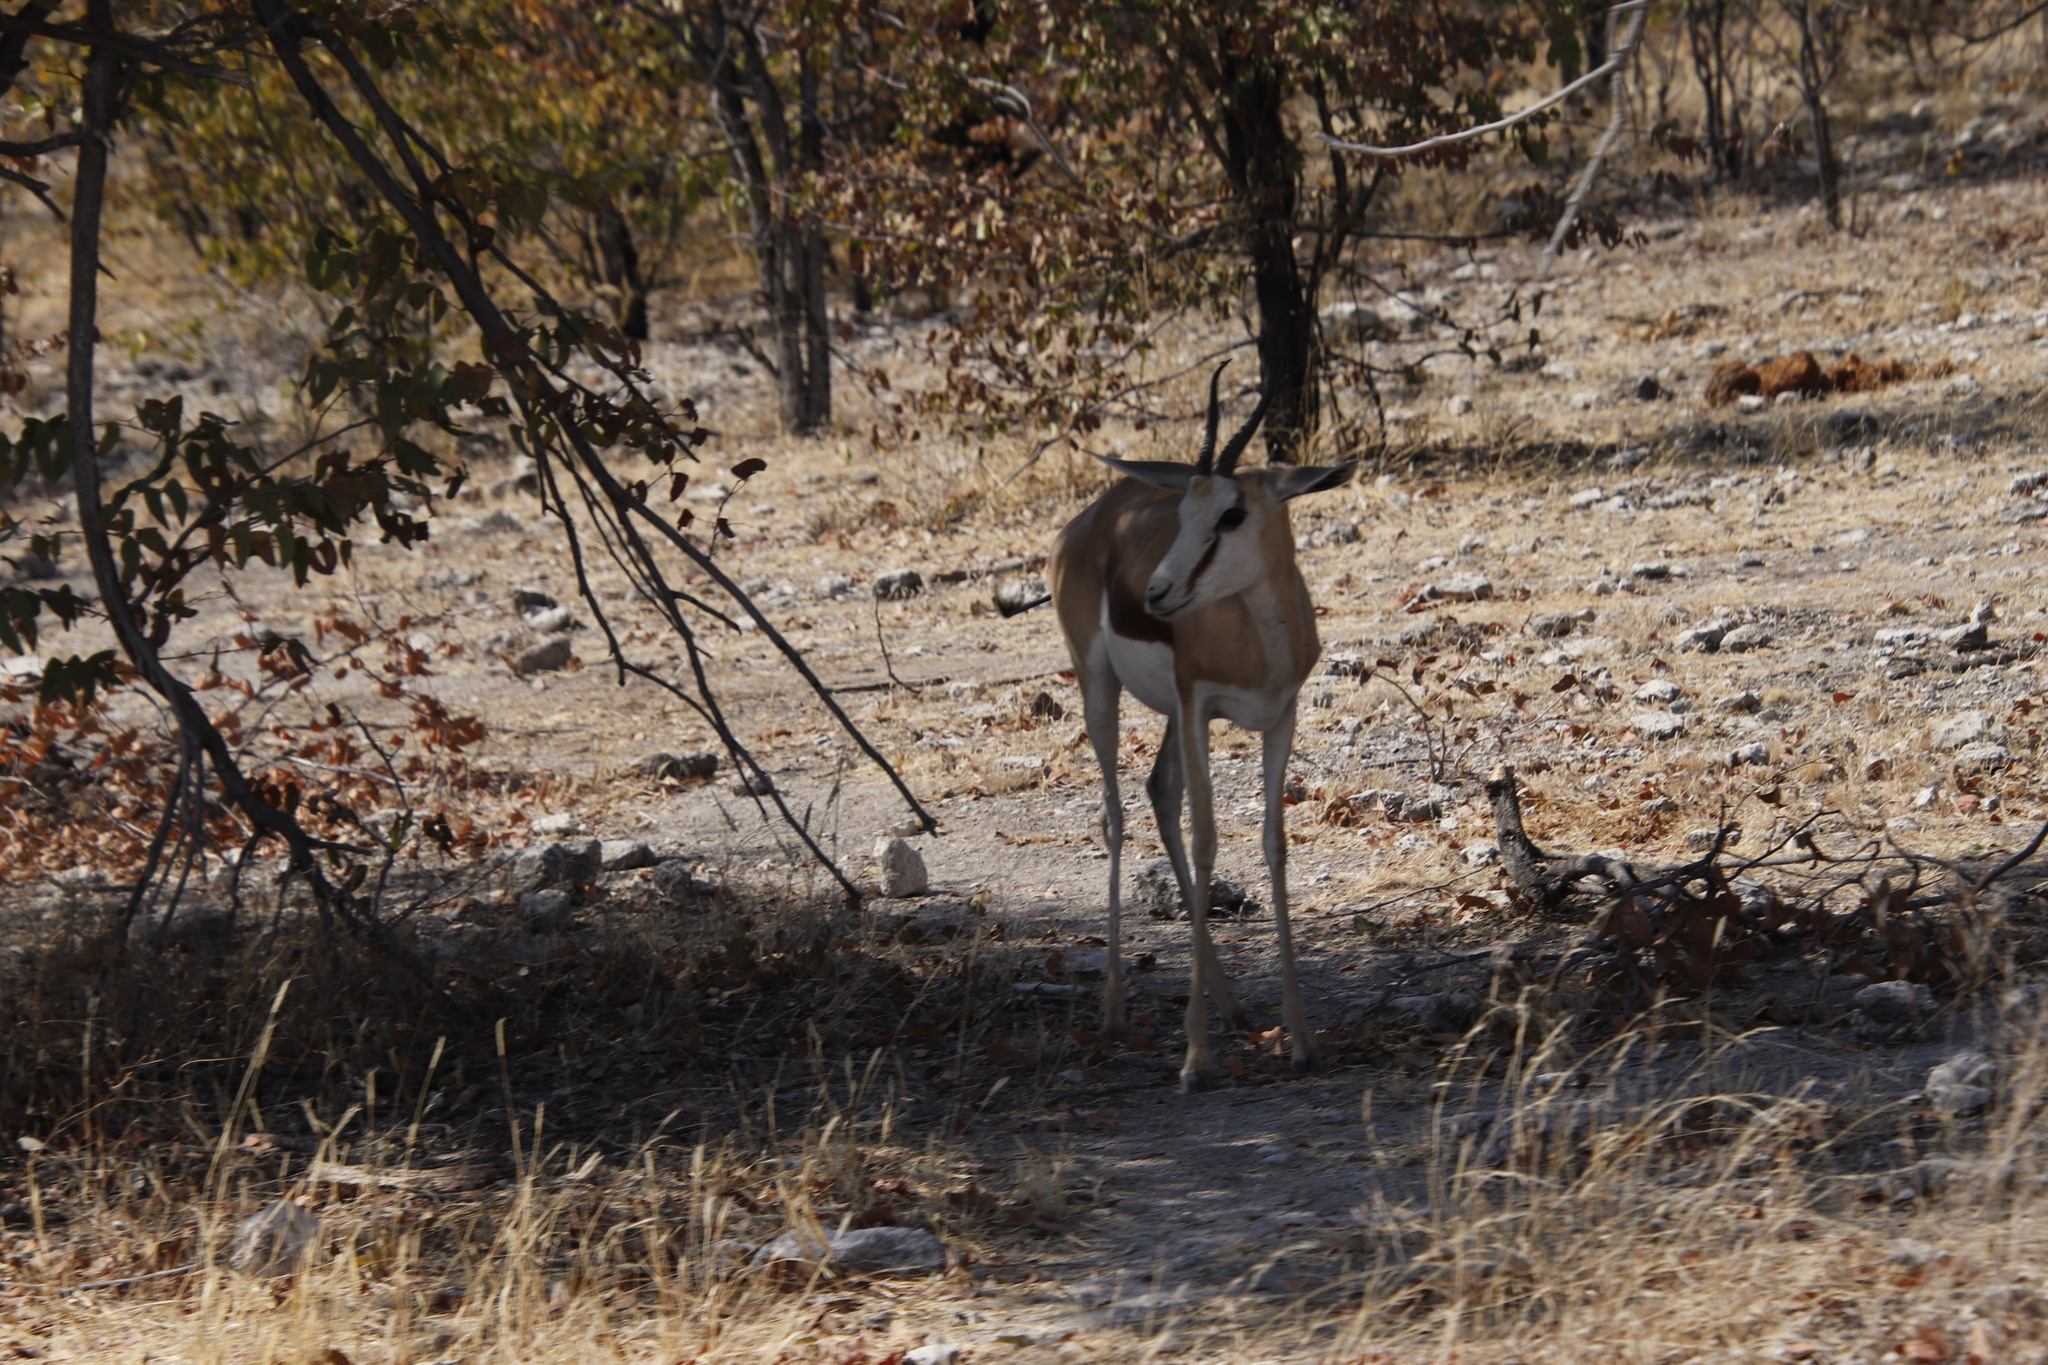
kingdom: Animalia
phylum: Chordata
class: Mammalia
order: Artiodactyla
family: Bovidae
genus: Antidorcas
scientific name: Antidorcas marsupialis
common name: Springbok
